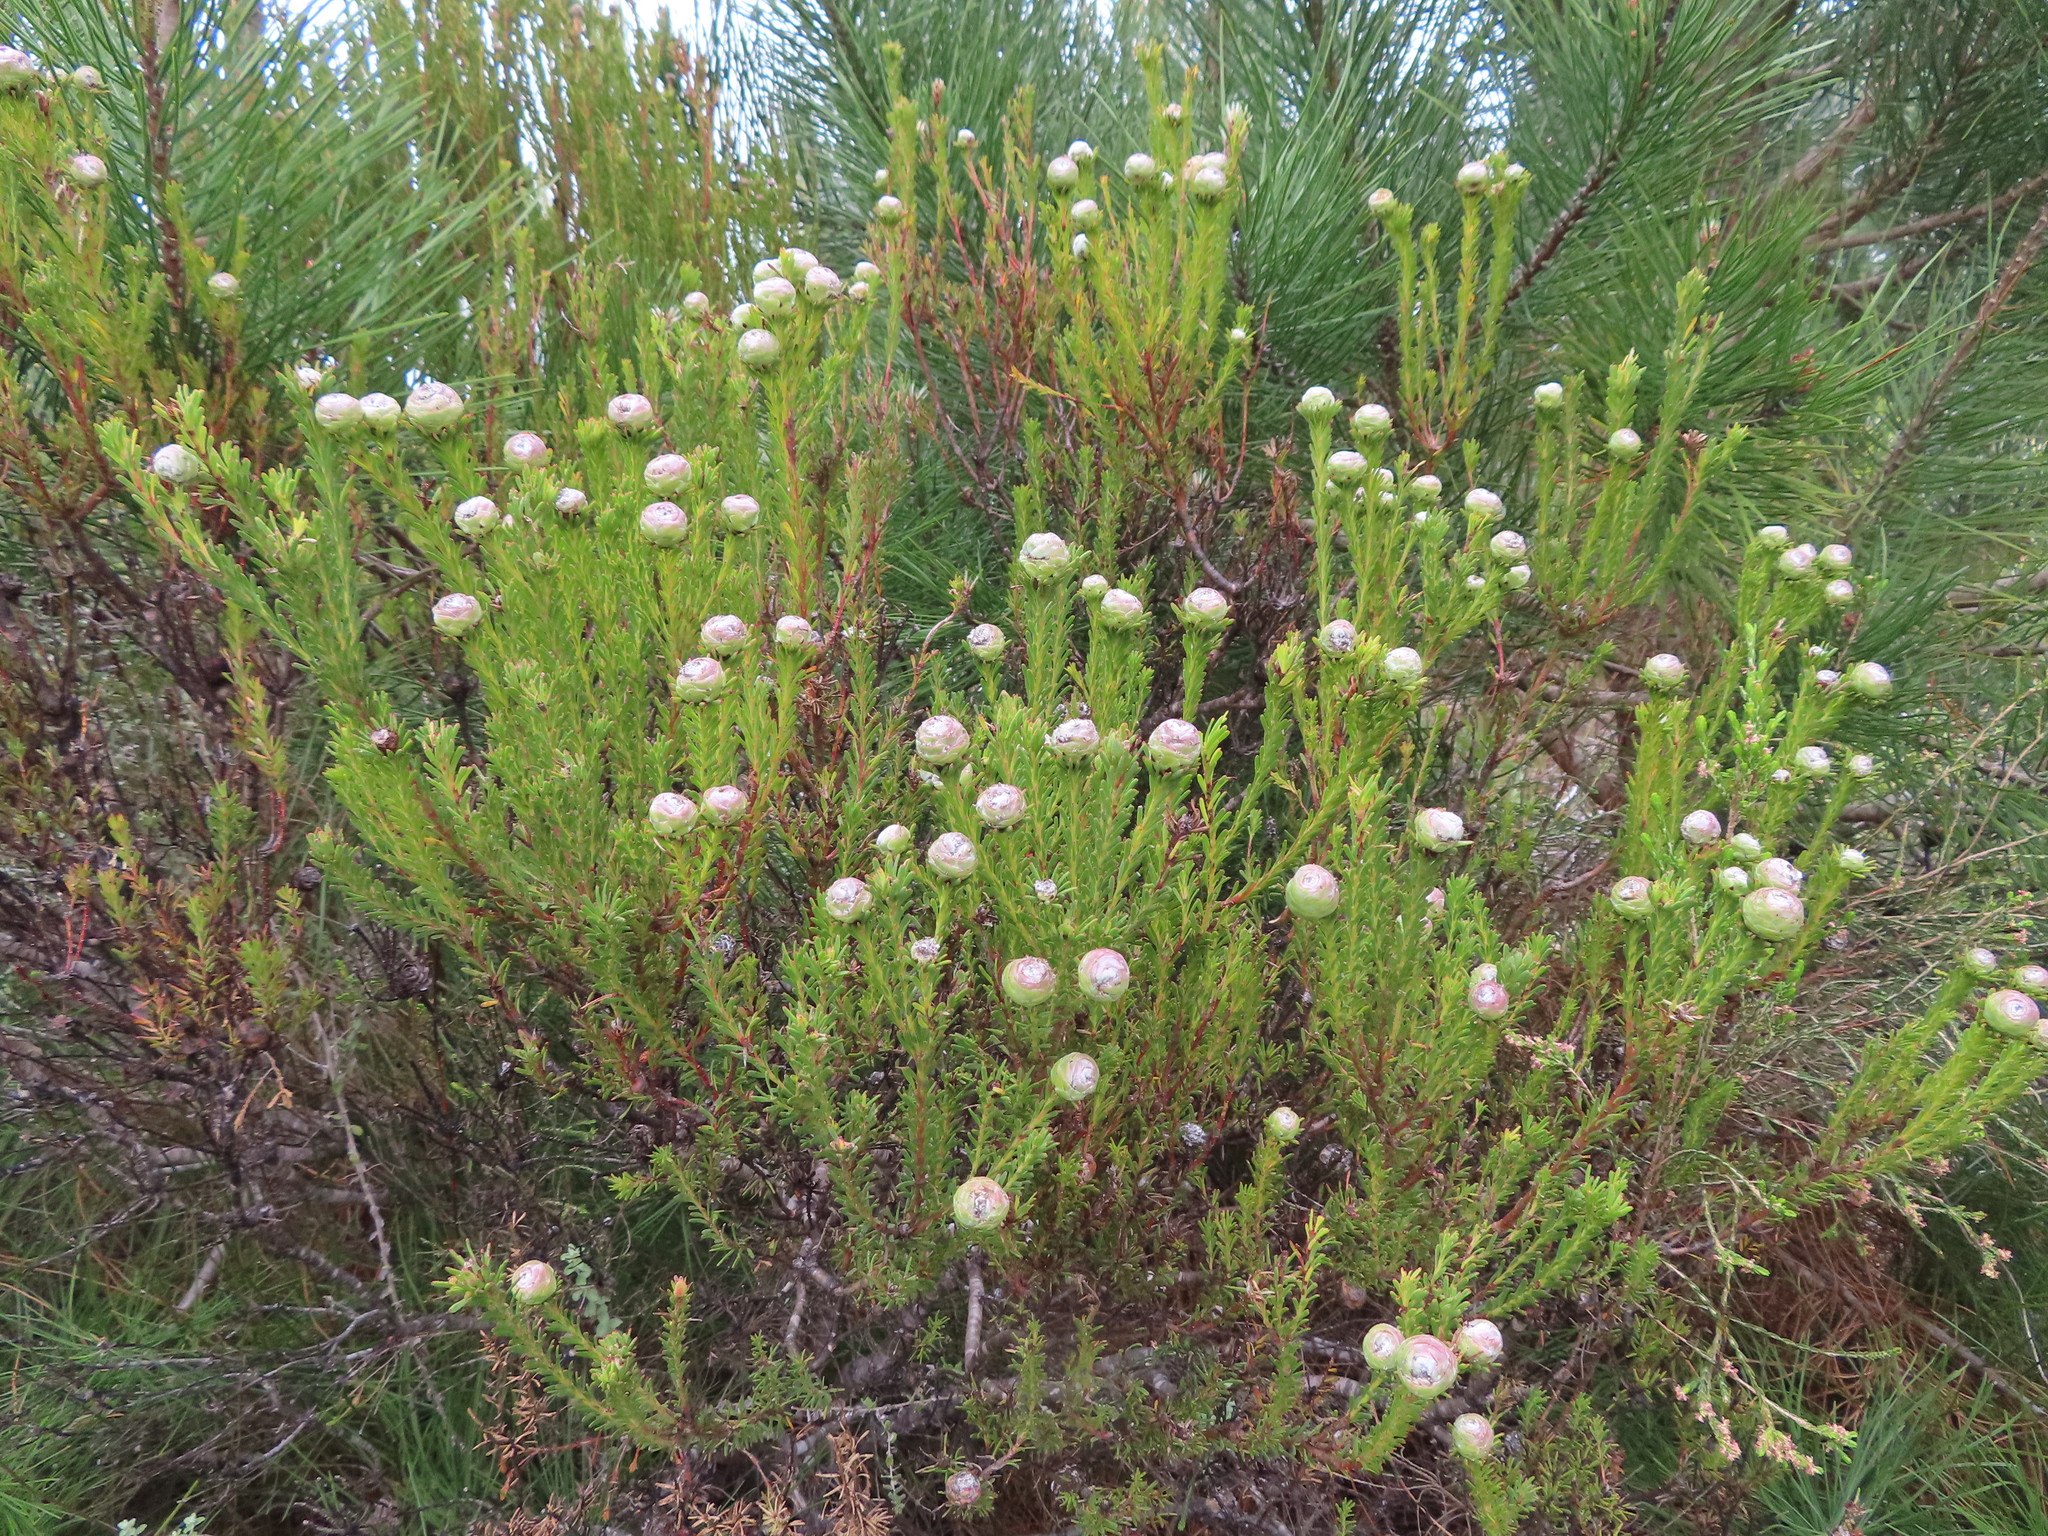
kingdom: Plantae
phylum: Tracheophyta
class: Magnoliopsida
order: Proteales
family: Proteaceae
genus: Leucadendron
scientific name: Leucadendron linifolium
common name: Line-leaf conebush
